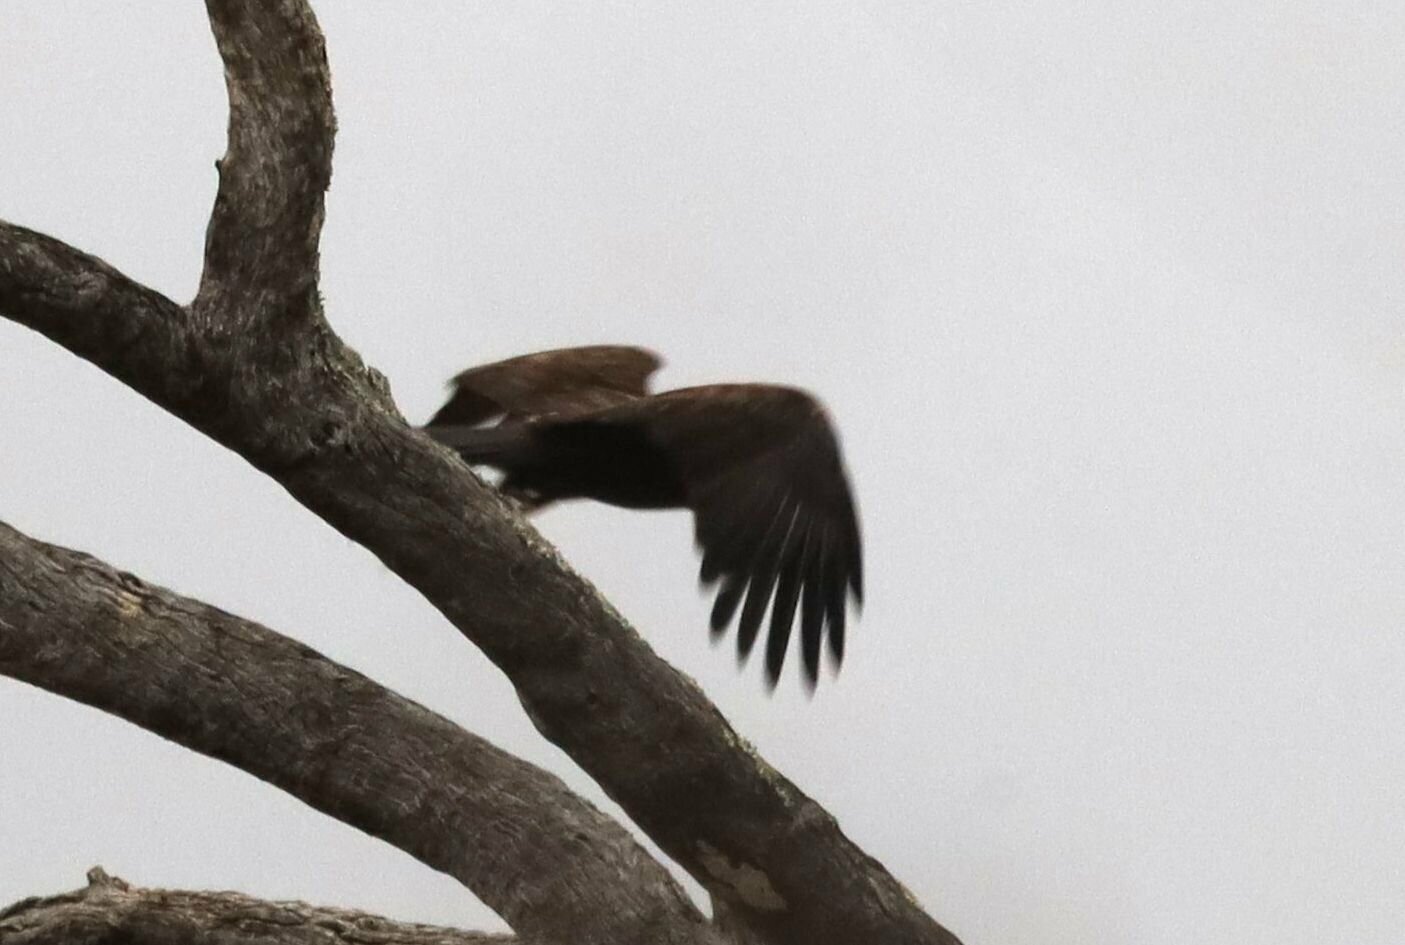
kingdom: Animalia
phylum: Chordata
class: Aves
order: Accipitriformes
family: Accipitridae
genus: Hieraaetus
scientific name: Hieraaetus wahlbergi
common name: Wahlberg's eagle
